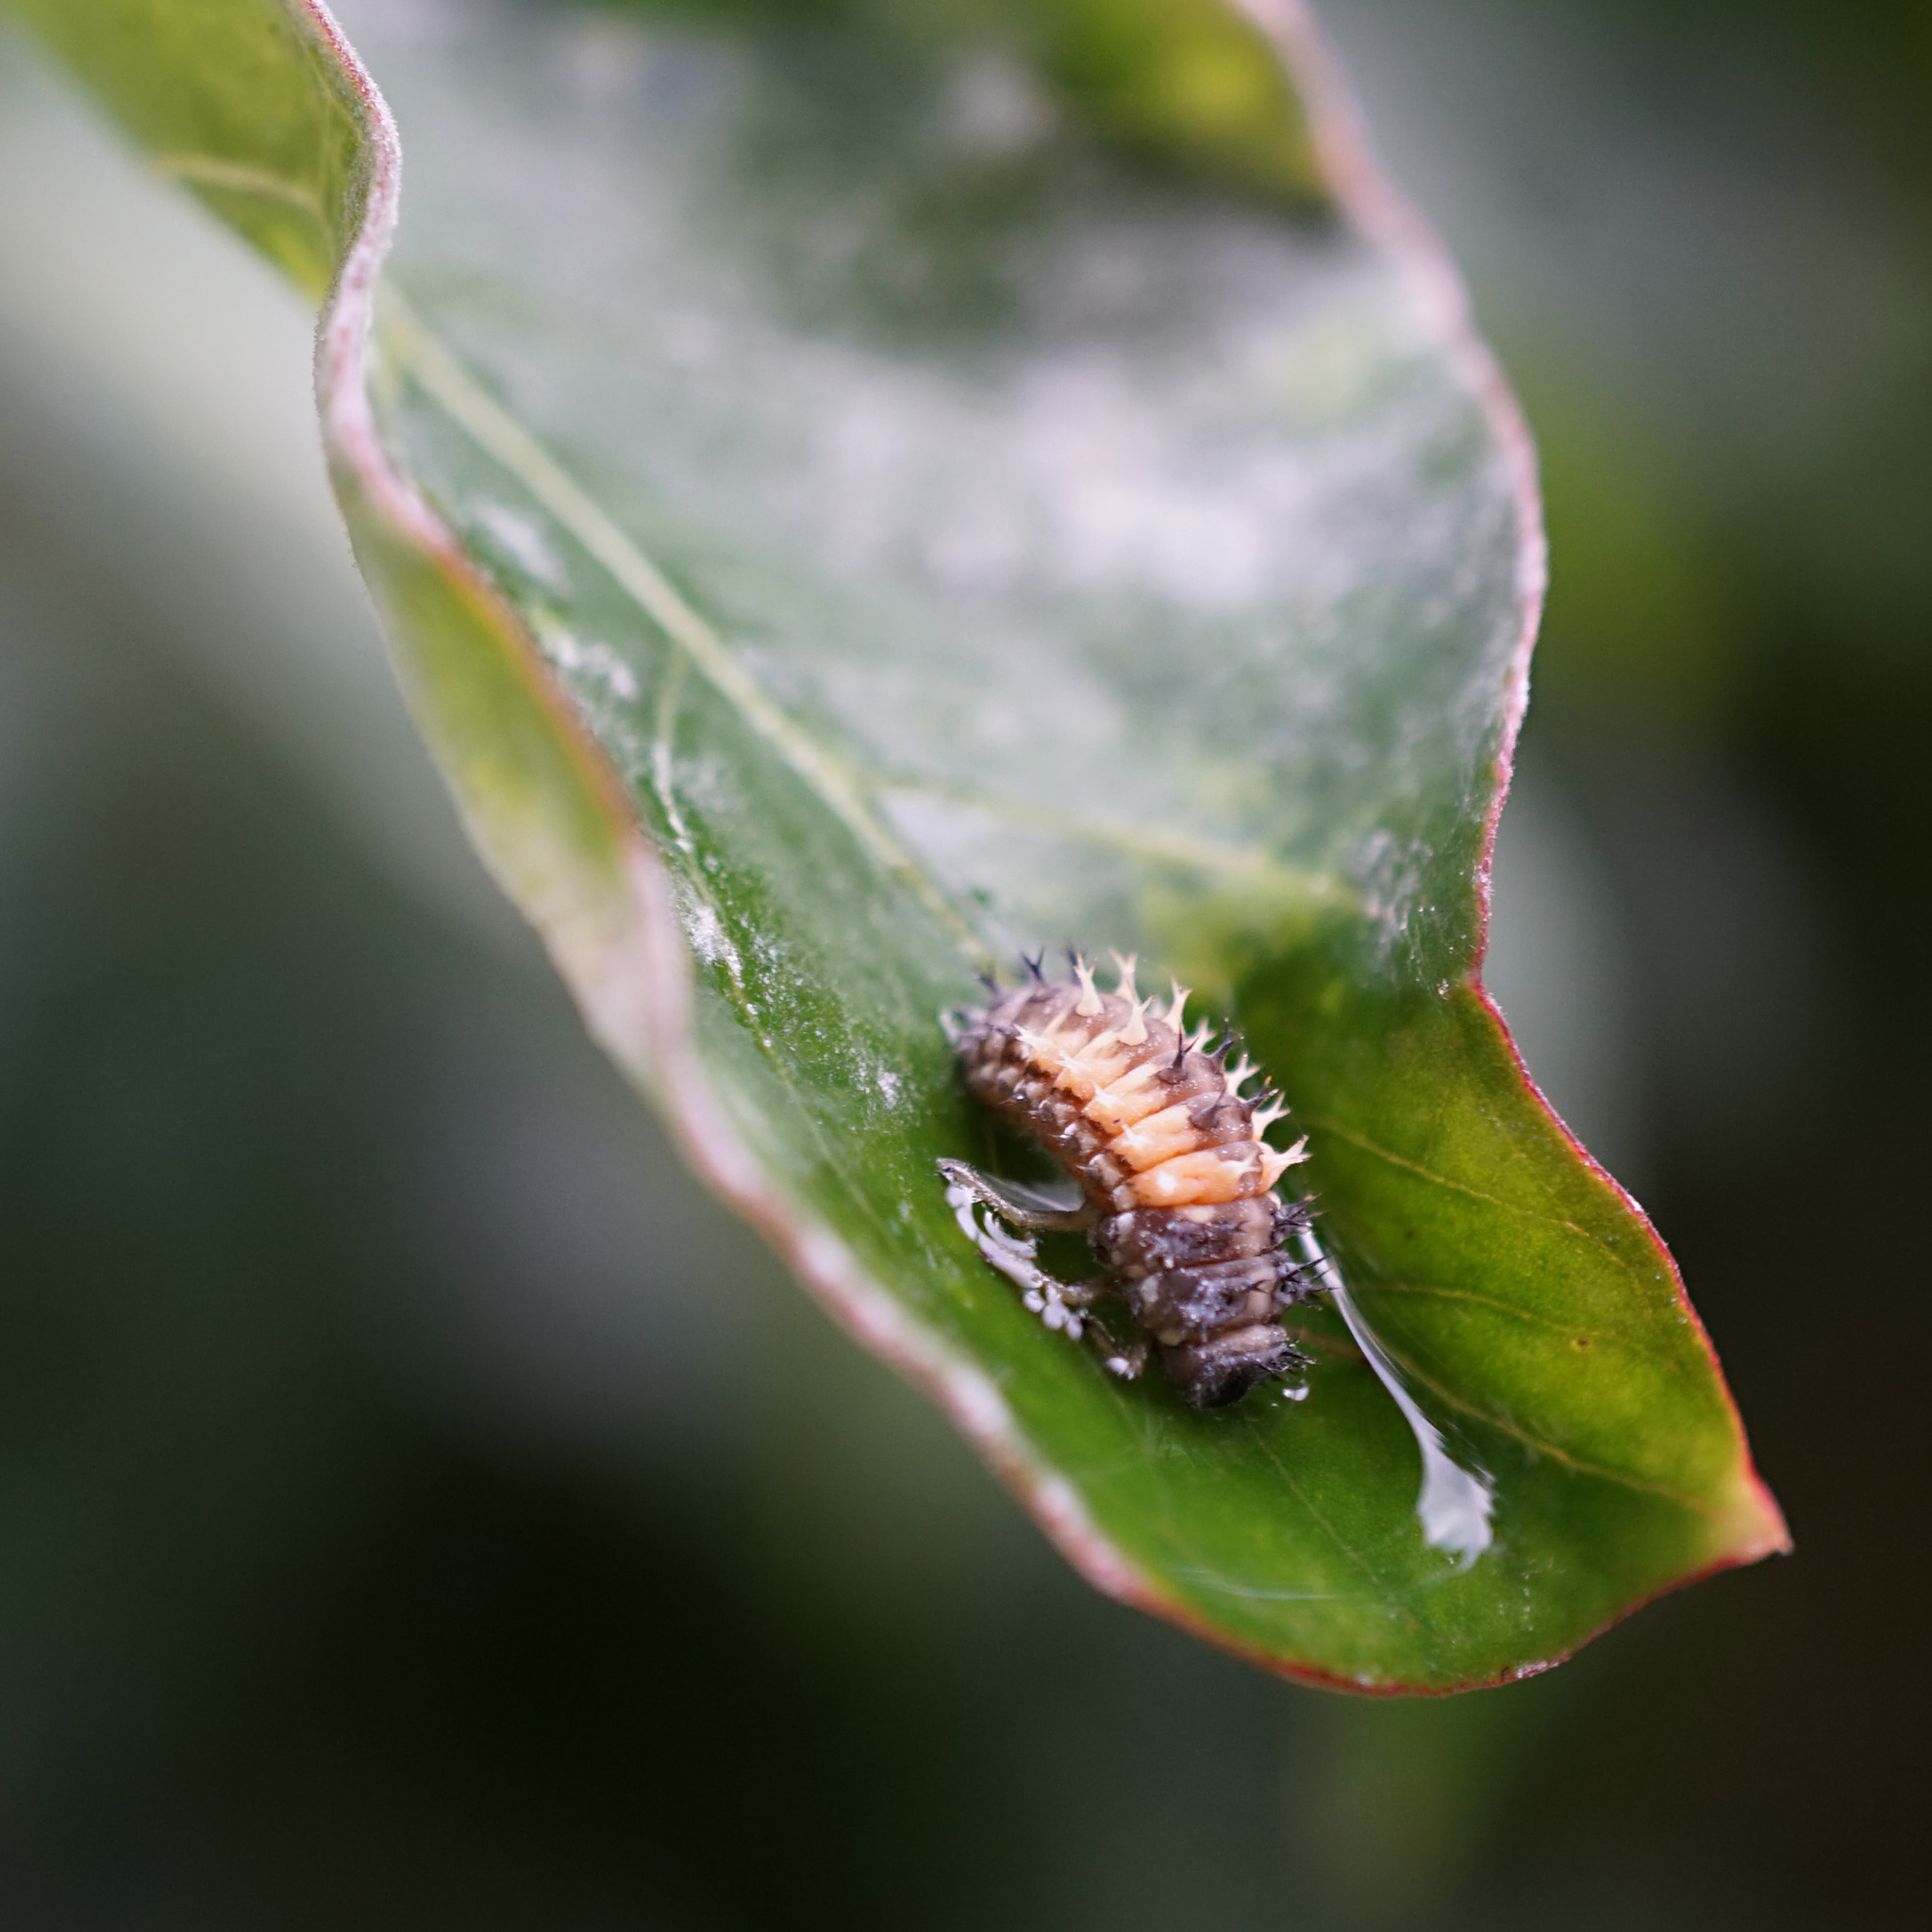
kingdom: Animalia
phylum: Arthropoda
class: Insecta
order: Coleoptera
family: Coccinellidae
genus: Harmonia
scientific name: Harmonia axyridis
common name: Harlequin ladybird
